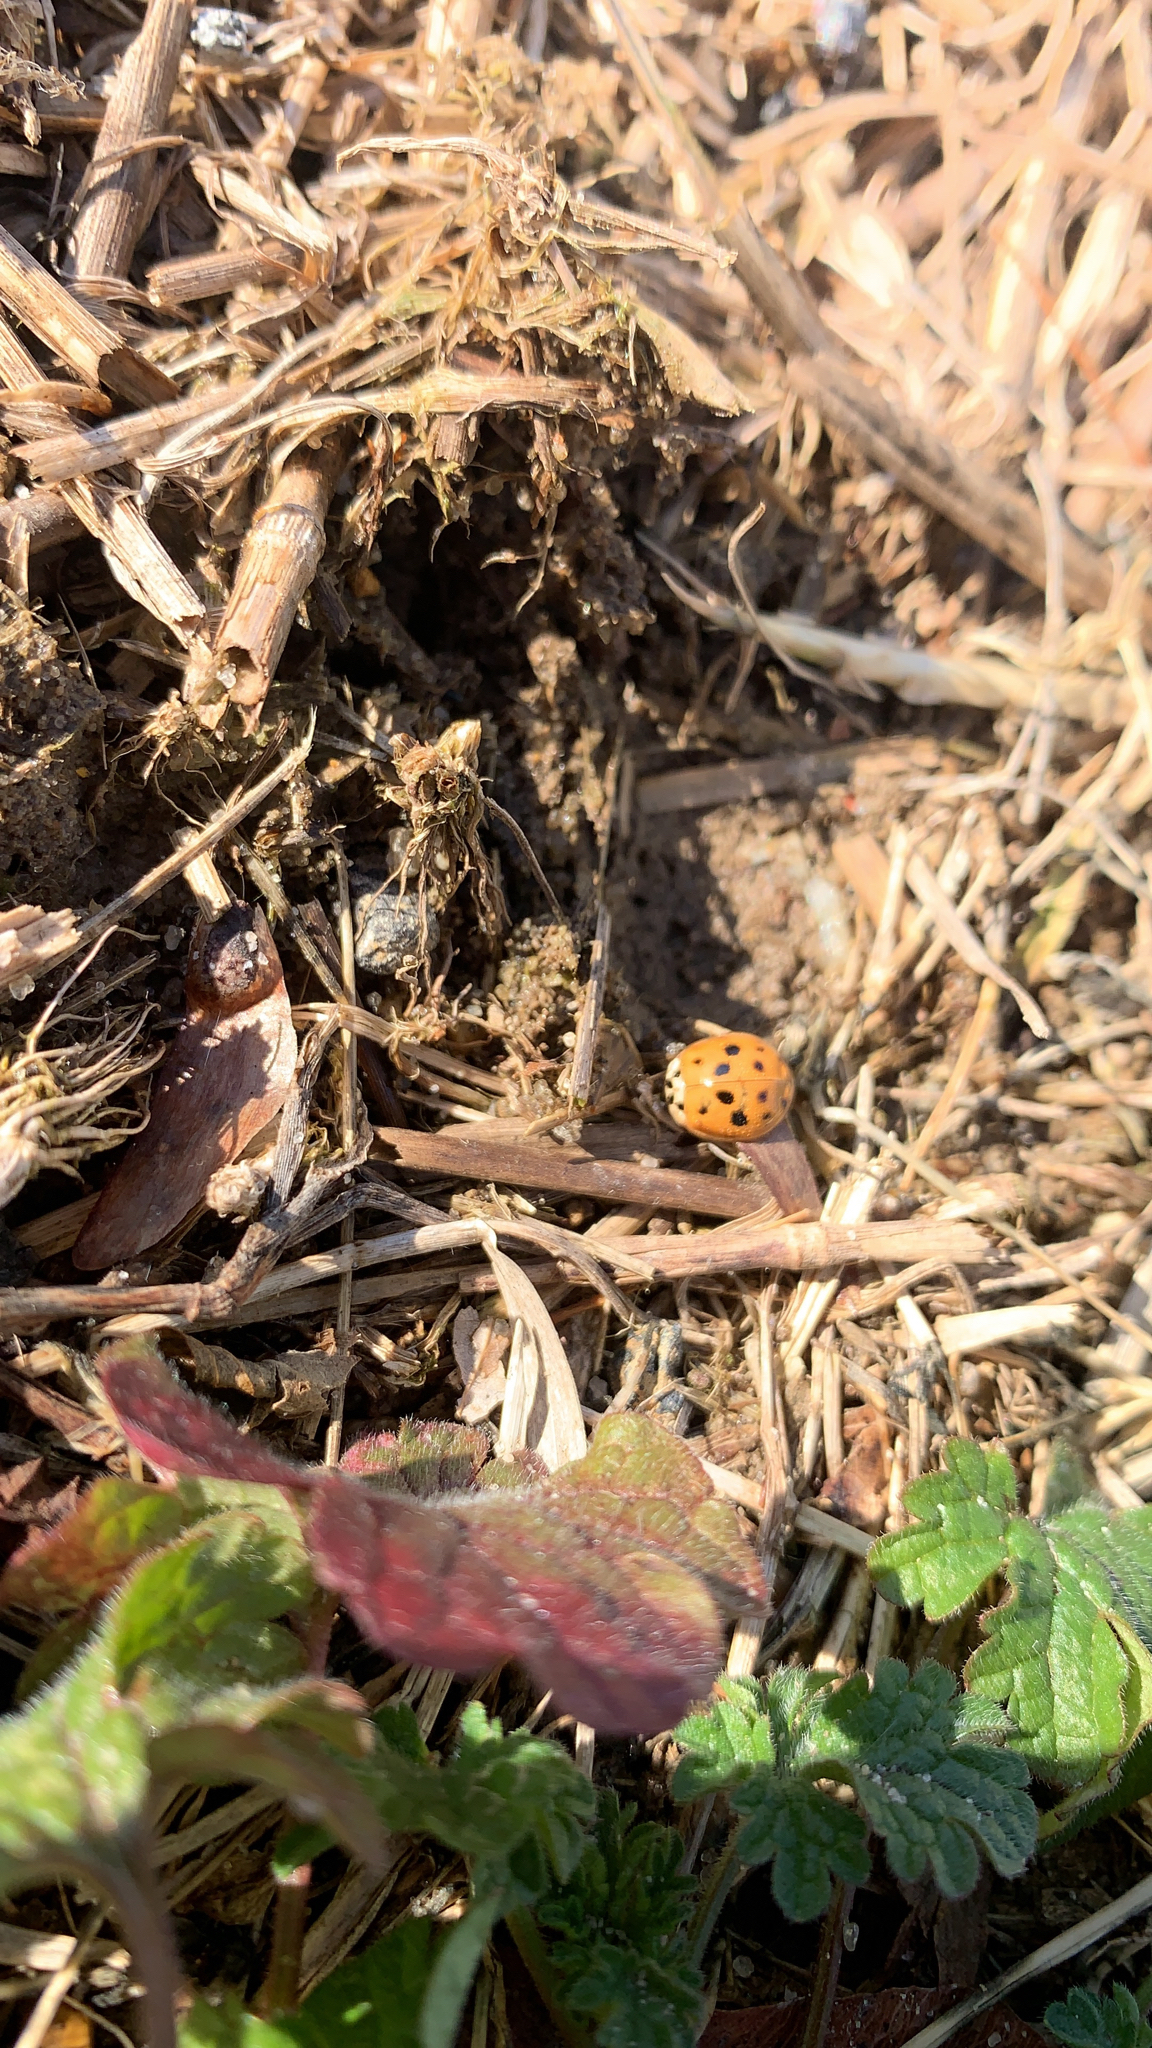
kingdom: Animalia
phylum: Arthropoda
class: Insecta
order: Coleoptera
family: Coccinellidae
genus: Harmonia
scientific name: Harmonia axyridis
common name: Harlequin ladybird
